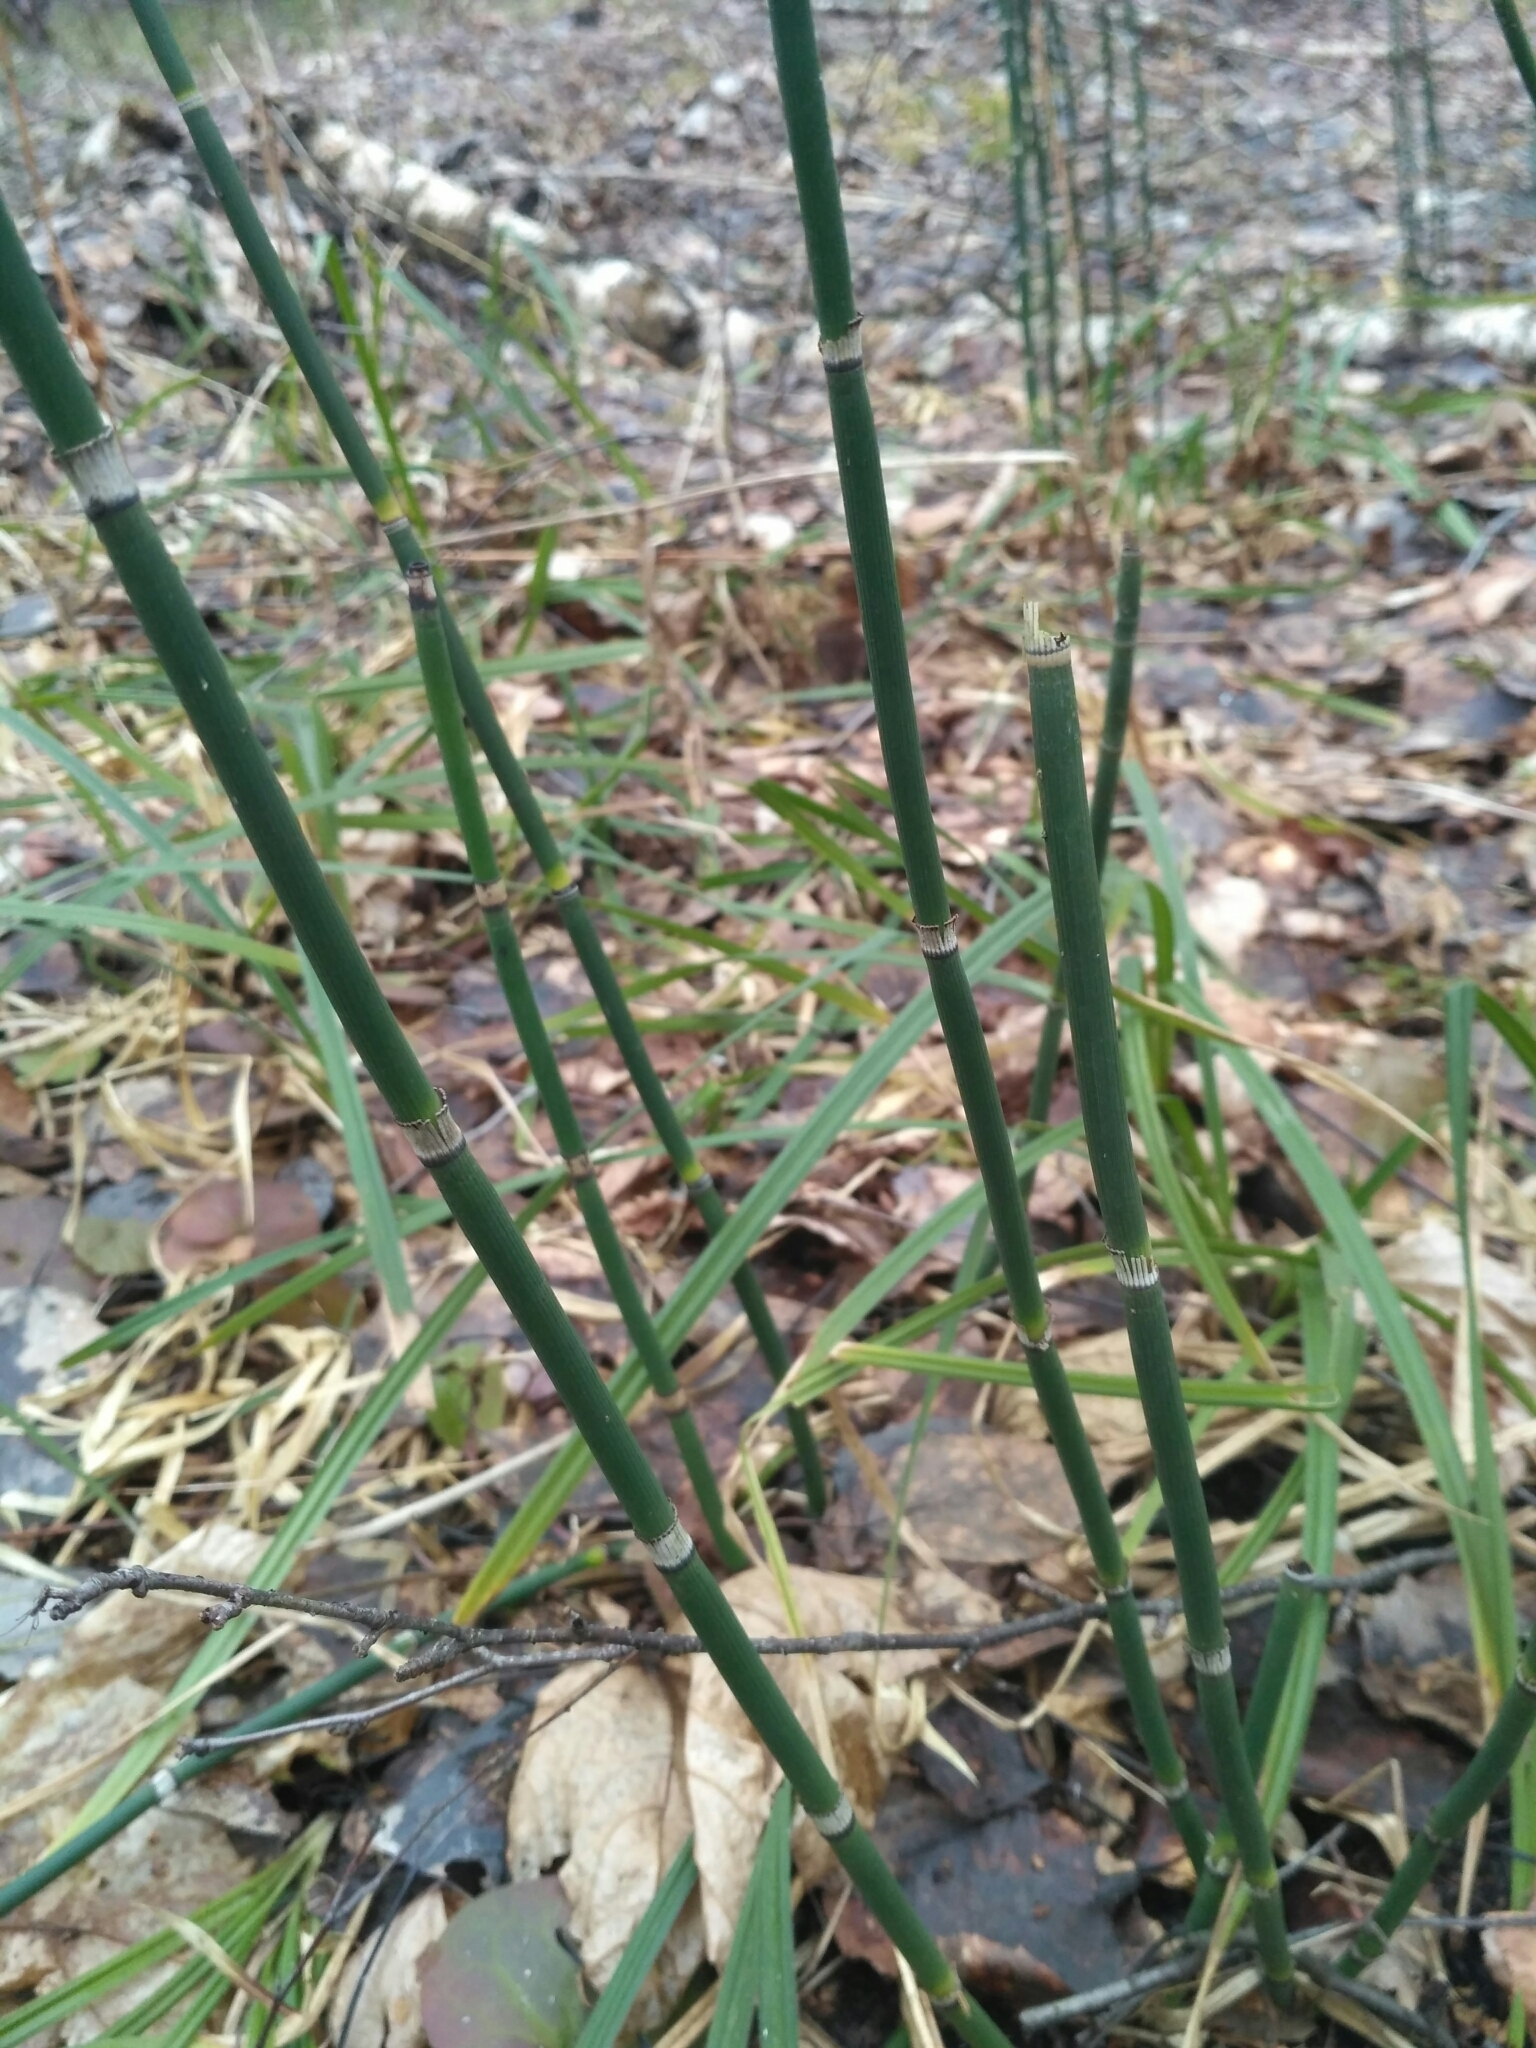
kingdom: Plantae
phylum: Tracheophyta
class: Polypodiopsida
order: Equisetales
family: Equisetaceae
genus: Equisetum
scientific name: Equisetum hyemale
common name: Rough horsetail
